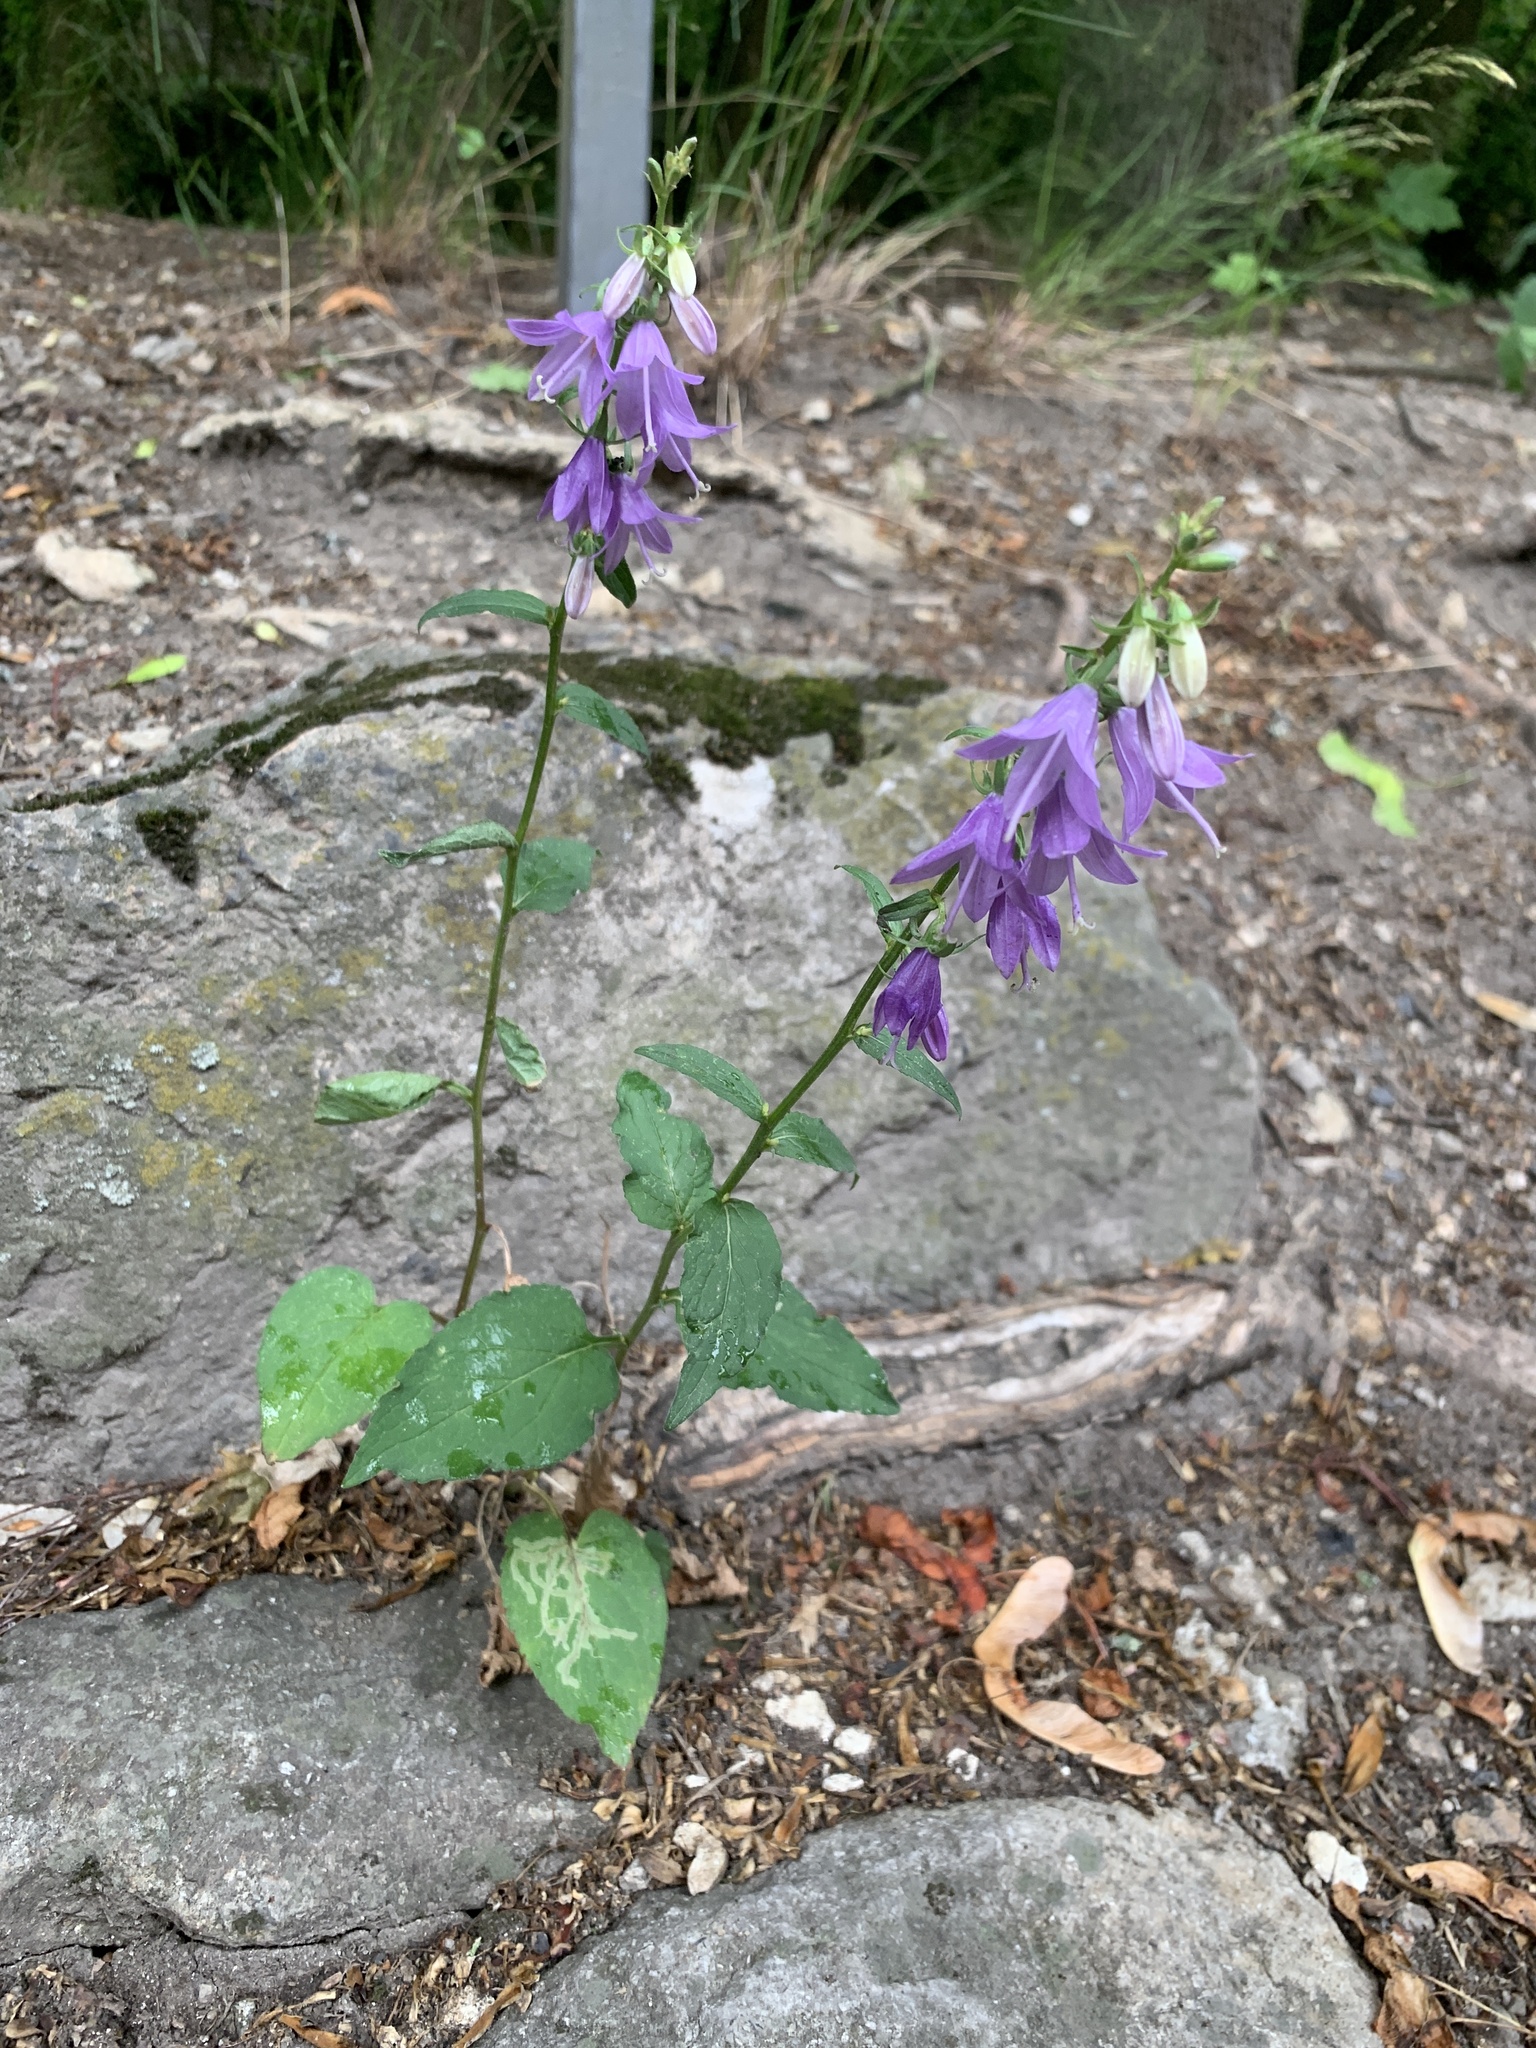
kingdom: Plantae
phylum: Tracheophyta
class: Magnoliopsida
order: Asterales
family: Campanulaceae
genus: Campanula
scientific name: Campanula rapunculoides
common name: Creeping bellflower
